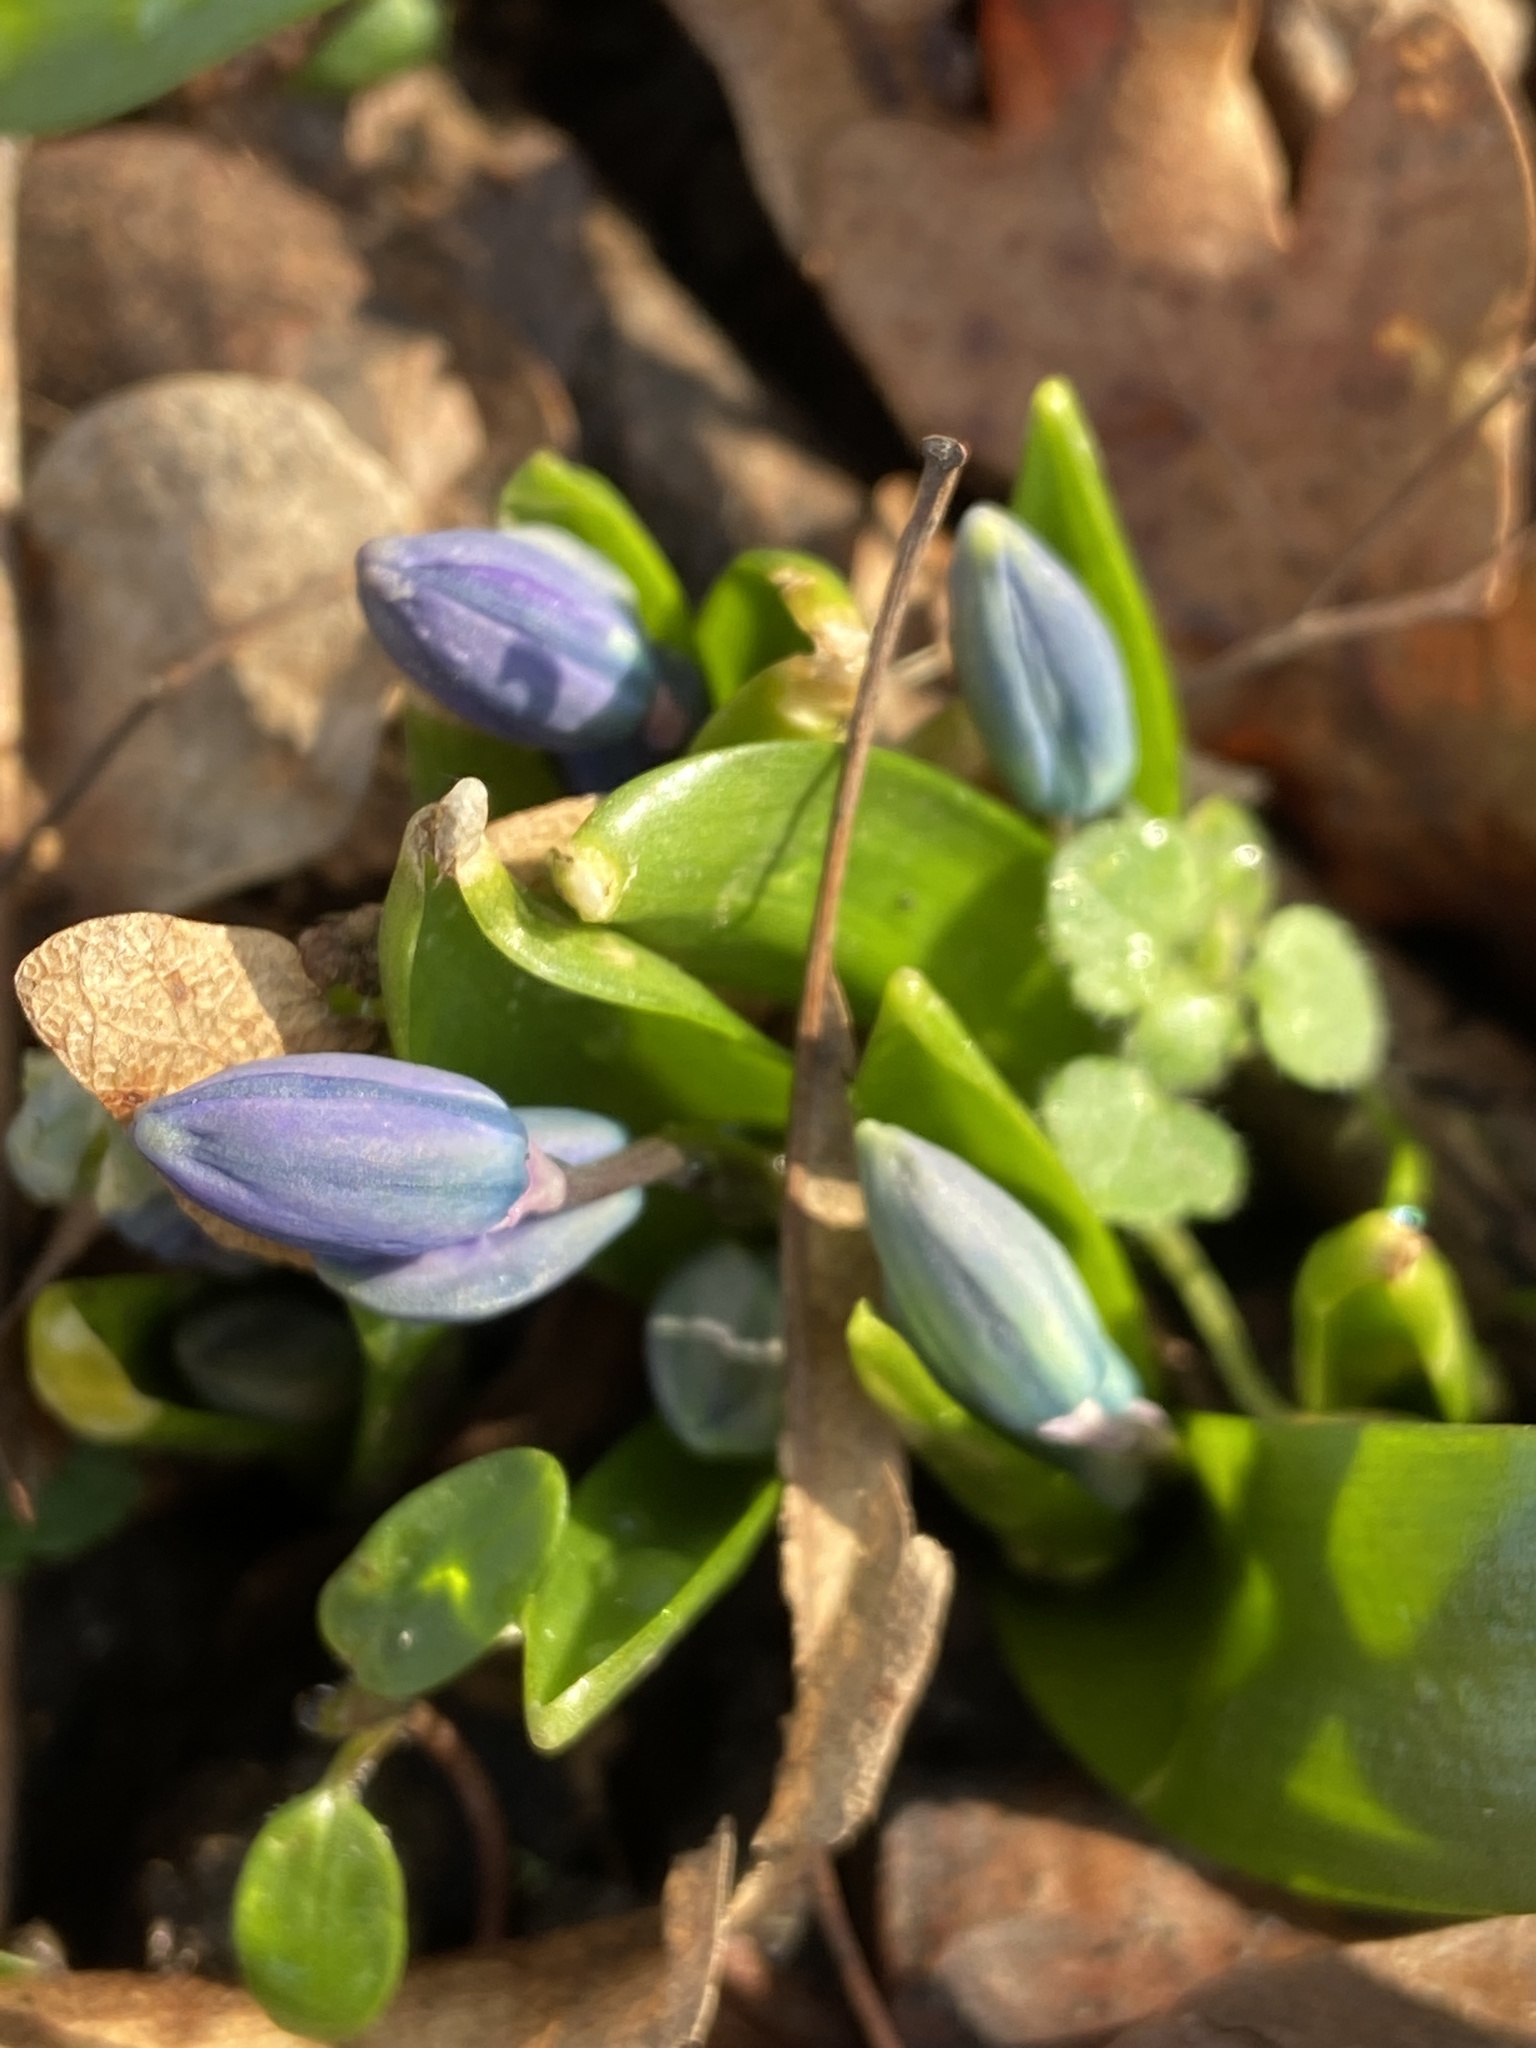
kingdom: Plantae
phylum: Tracheophyta
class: Liliopsida
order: Asparagales
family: Asparagaceae
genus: Scilla
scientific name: Scilla siberica
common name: Siberian squill
